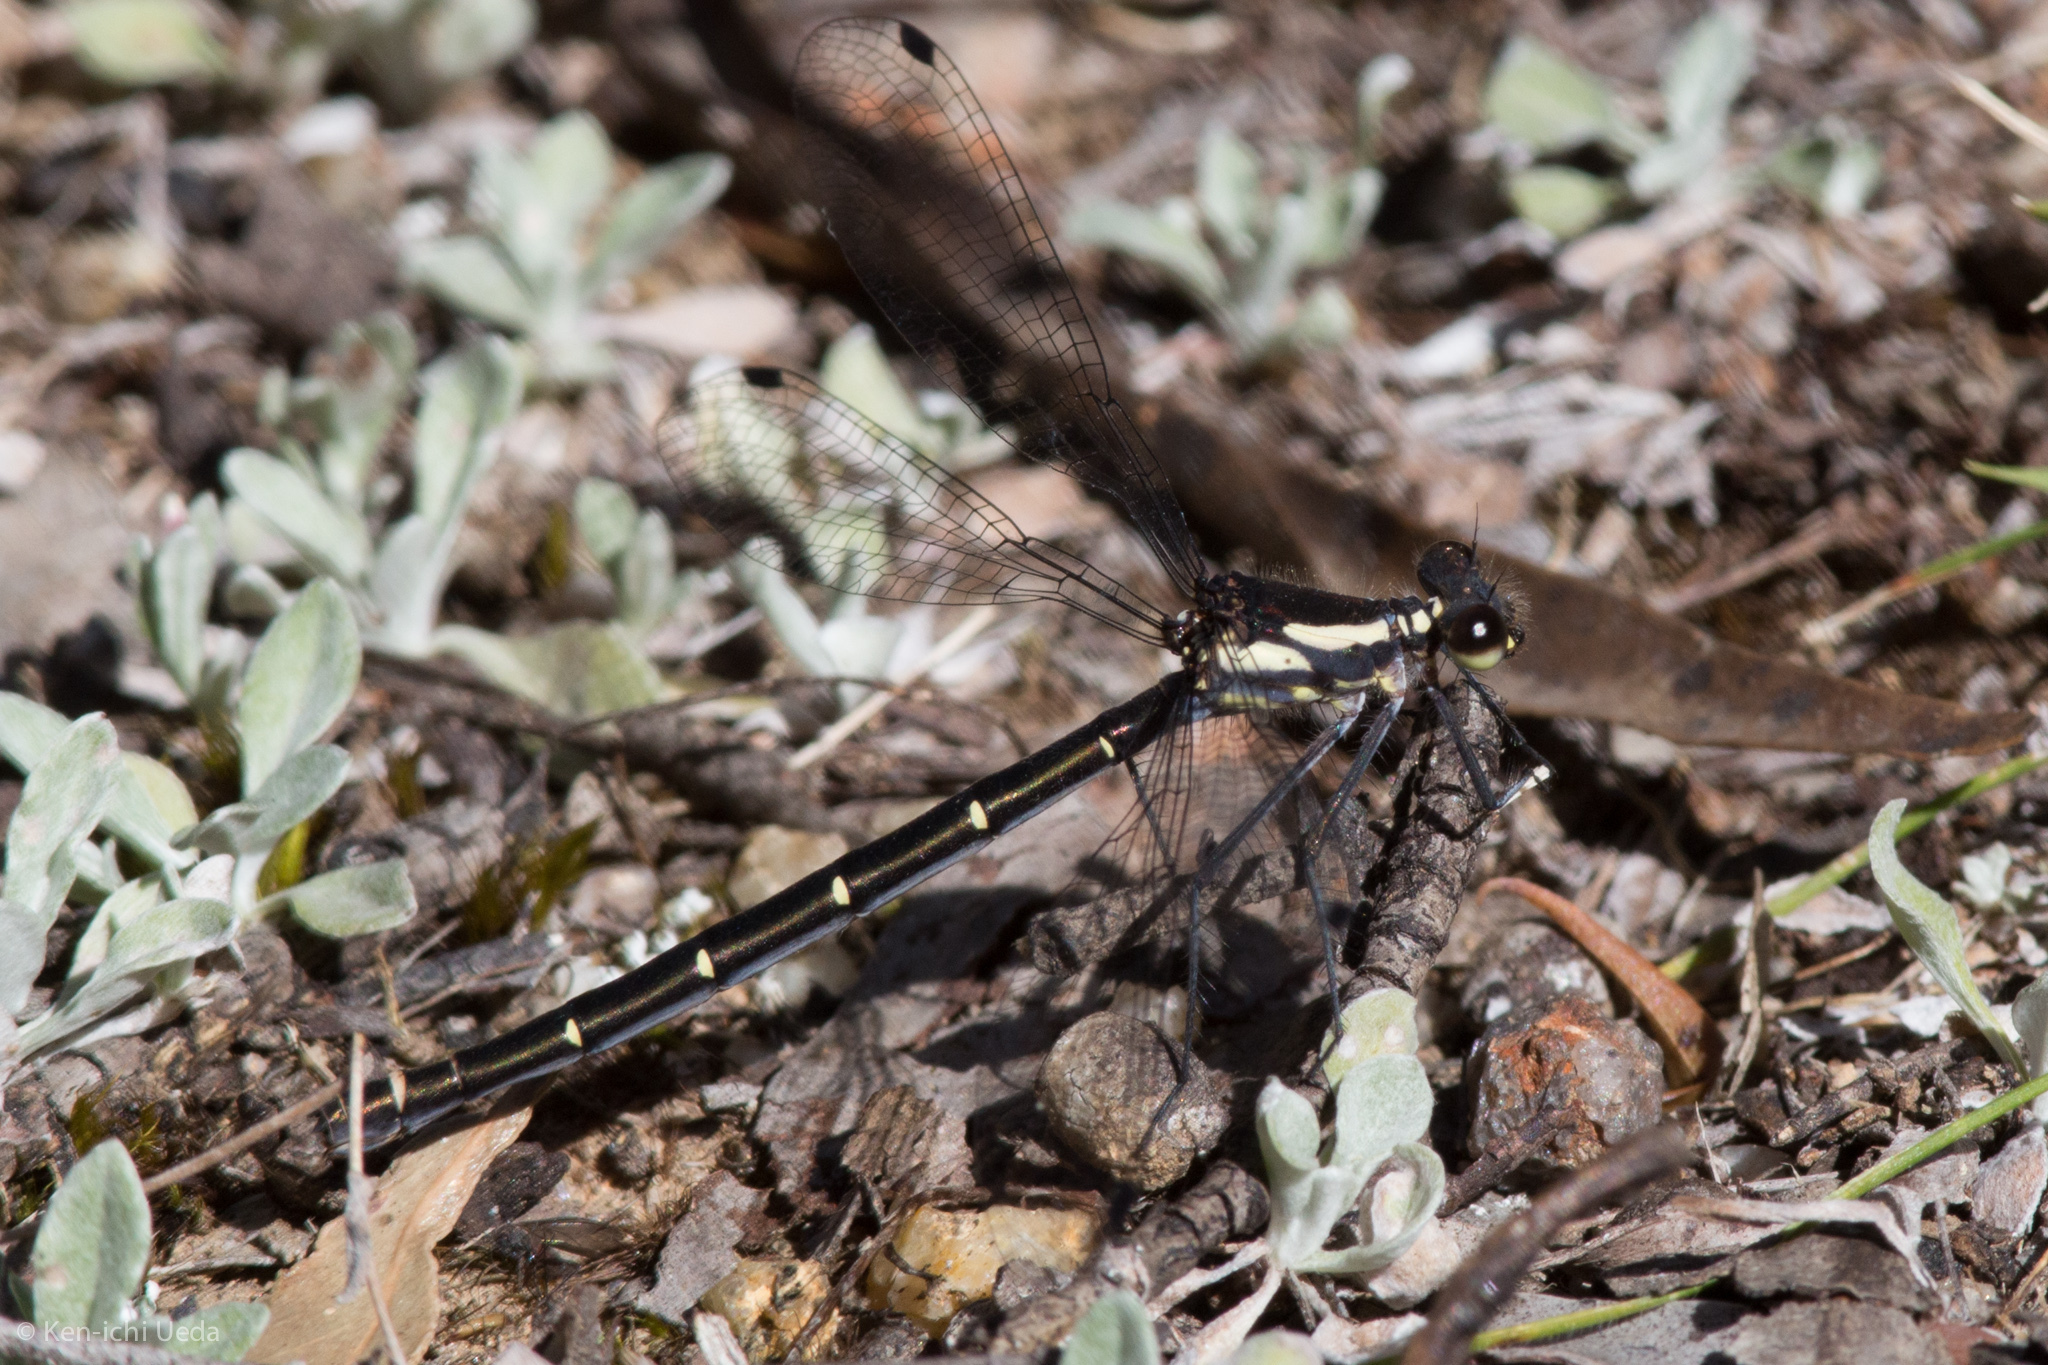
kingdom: Animalia
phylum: Arthropoda
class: Insecta
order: Odonata
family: Argiolestidae
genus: Austroargiolestes
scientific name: Austroargiolestes icteromelas
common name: Common flatwing
